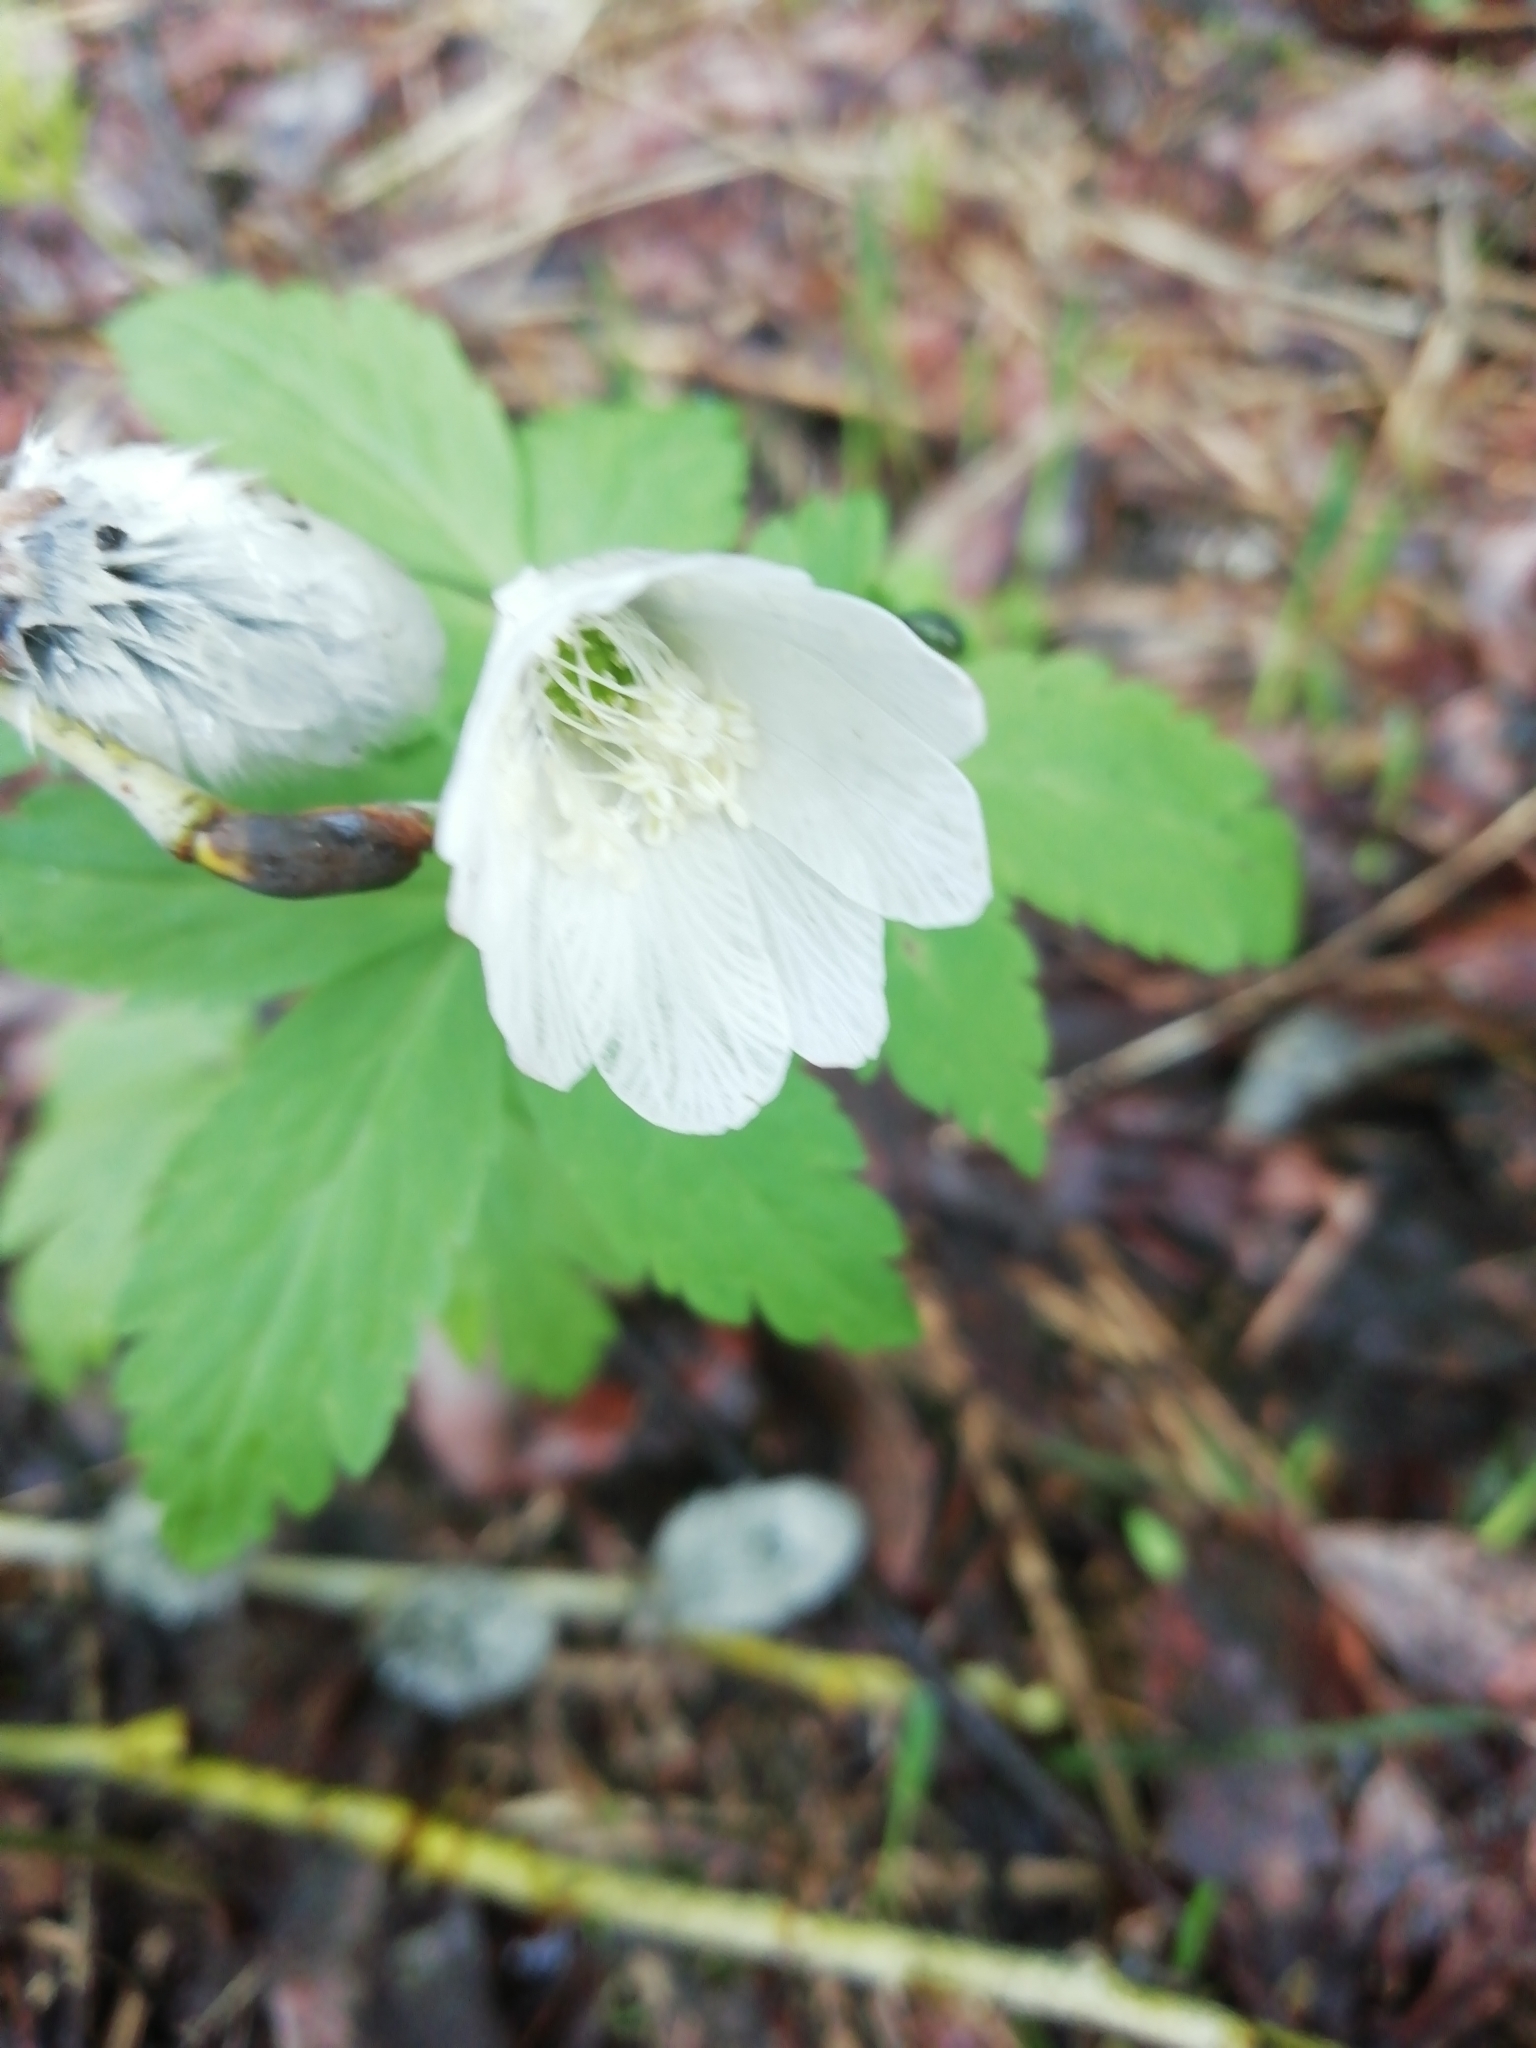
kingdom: Plantae
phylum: Tracheophyta
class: Magnoliopsida
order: Ranunculales
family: Ranunculaceae
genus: Anemone
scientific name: Anemone altaica
